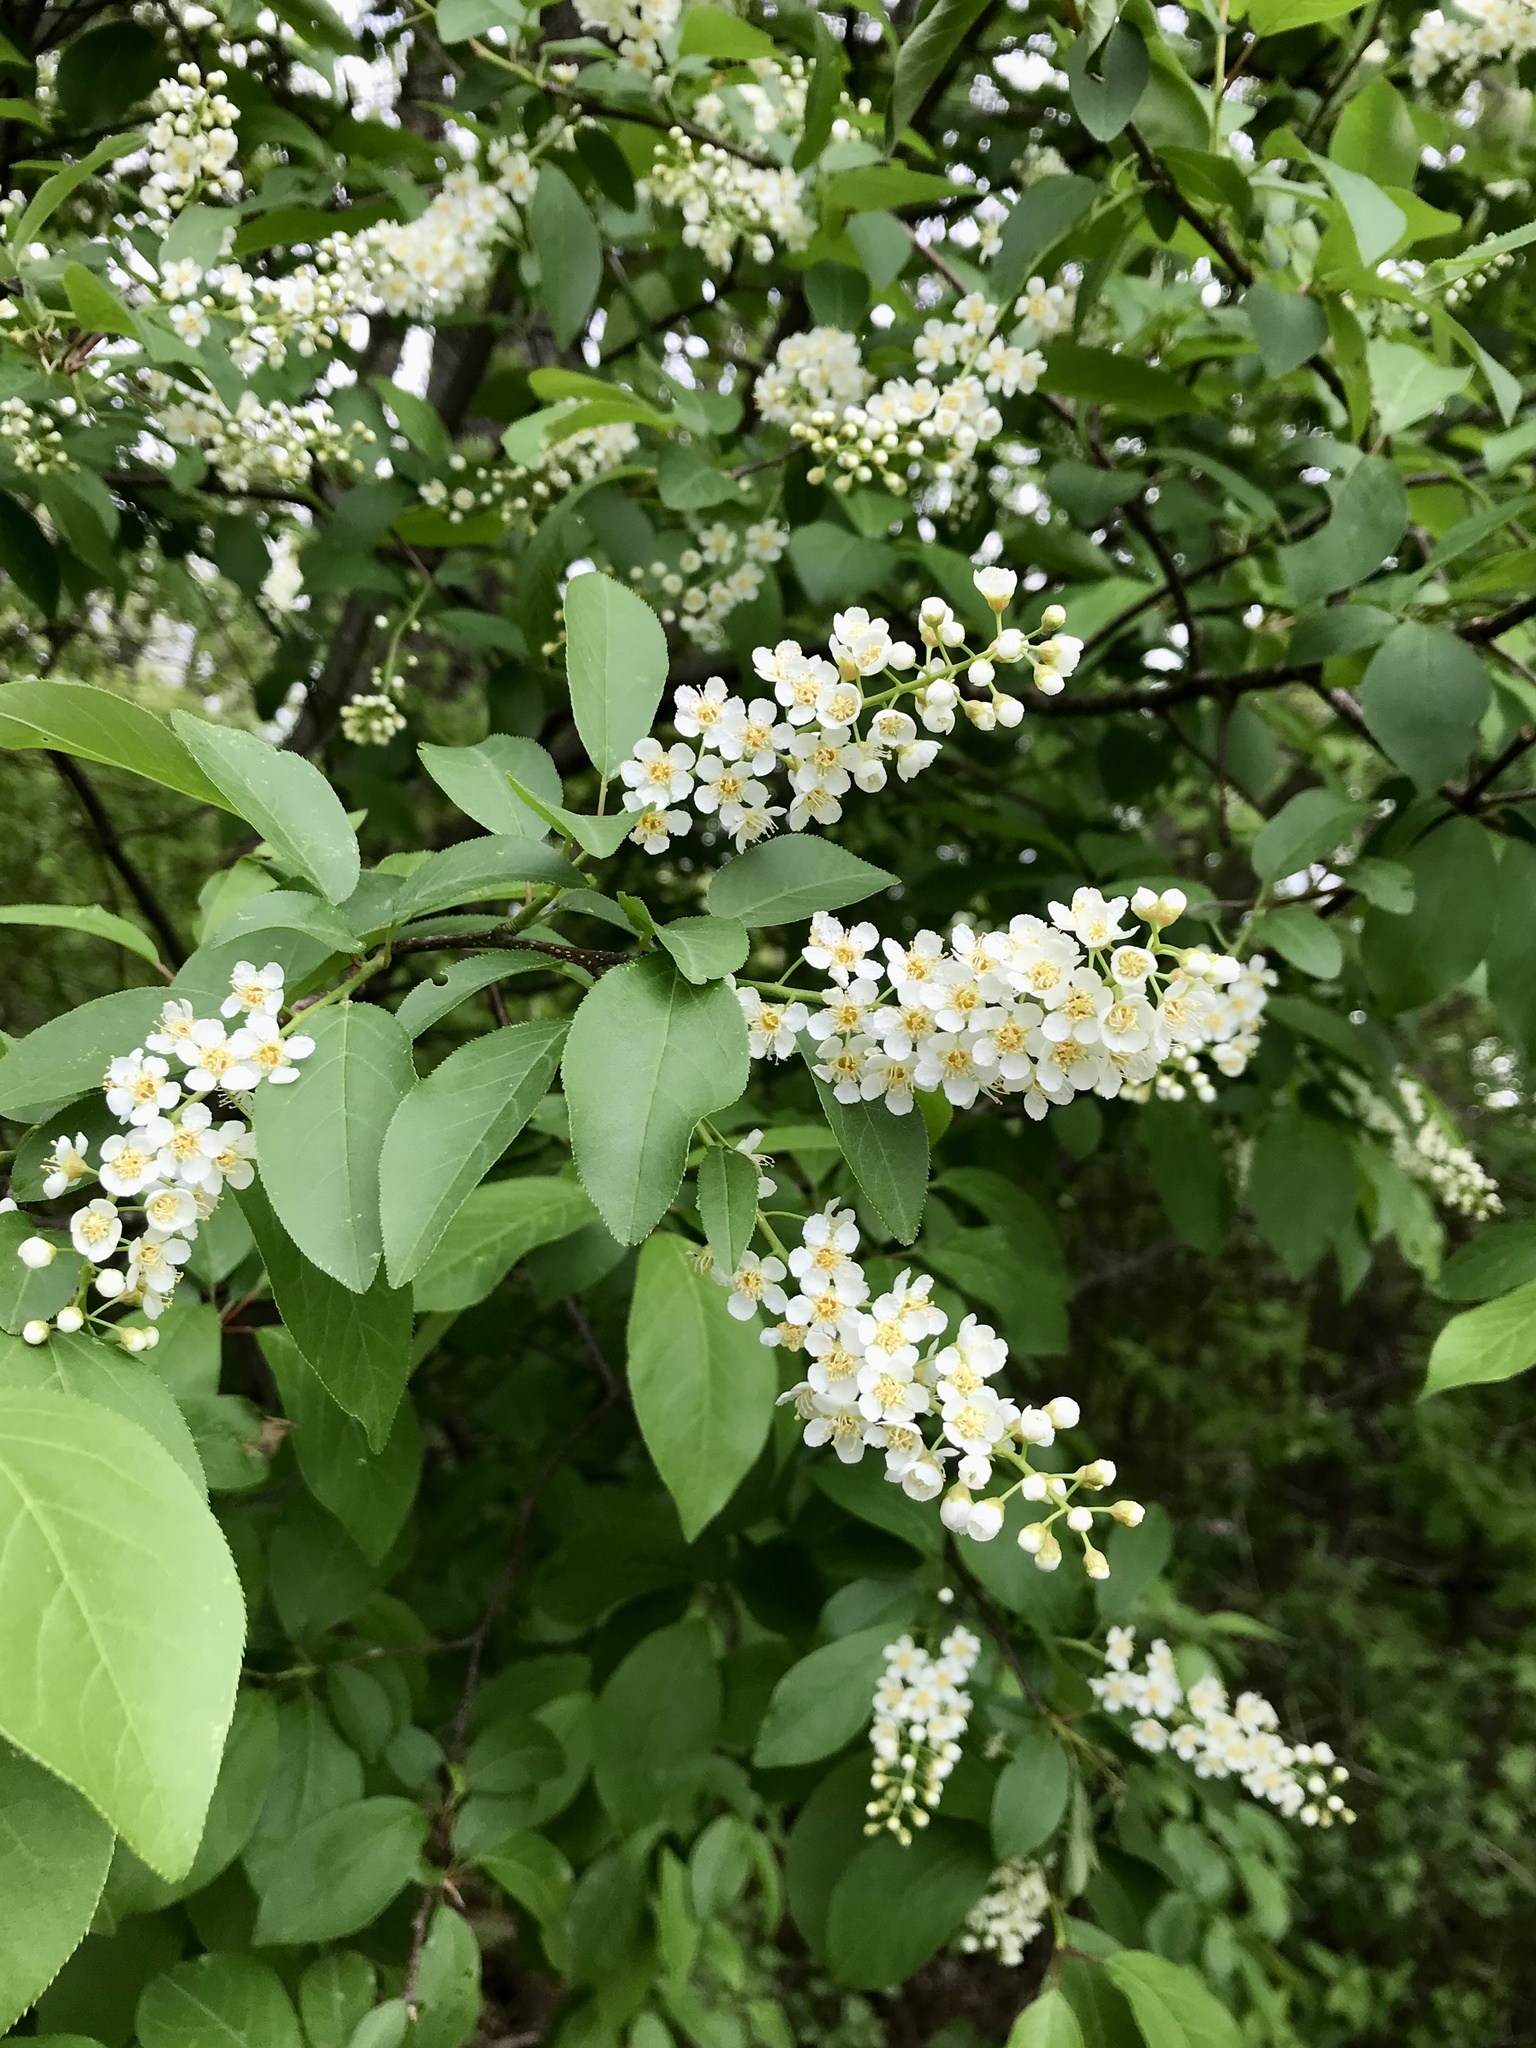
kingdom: Plantae
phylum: Tracheophyta
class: Magnoliopsida
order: Rosales
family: Rosaceae
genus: Prunus
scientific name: Prunus virginiana
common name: Chokecherry
